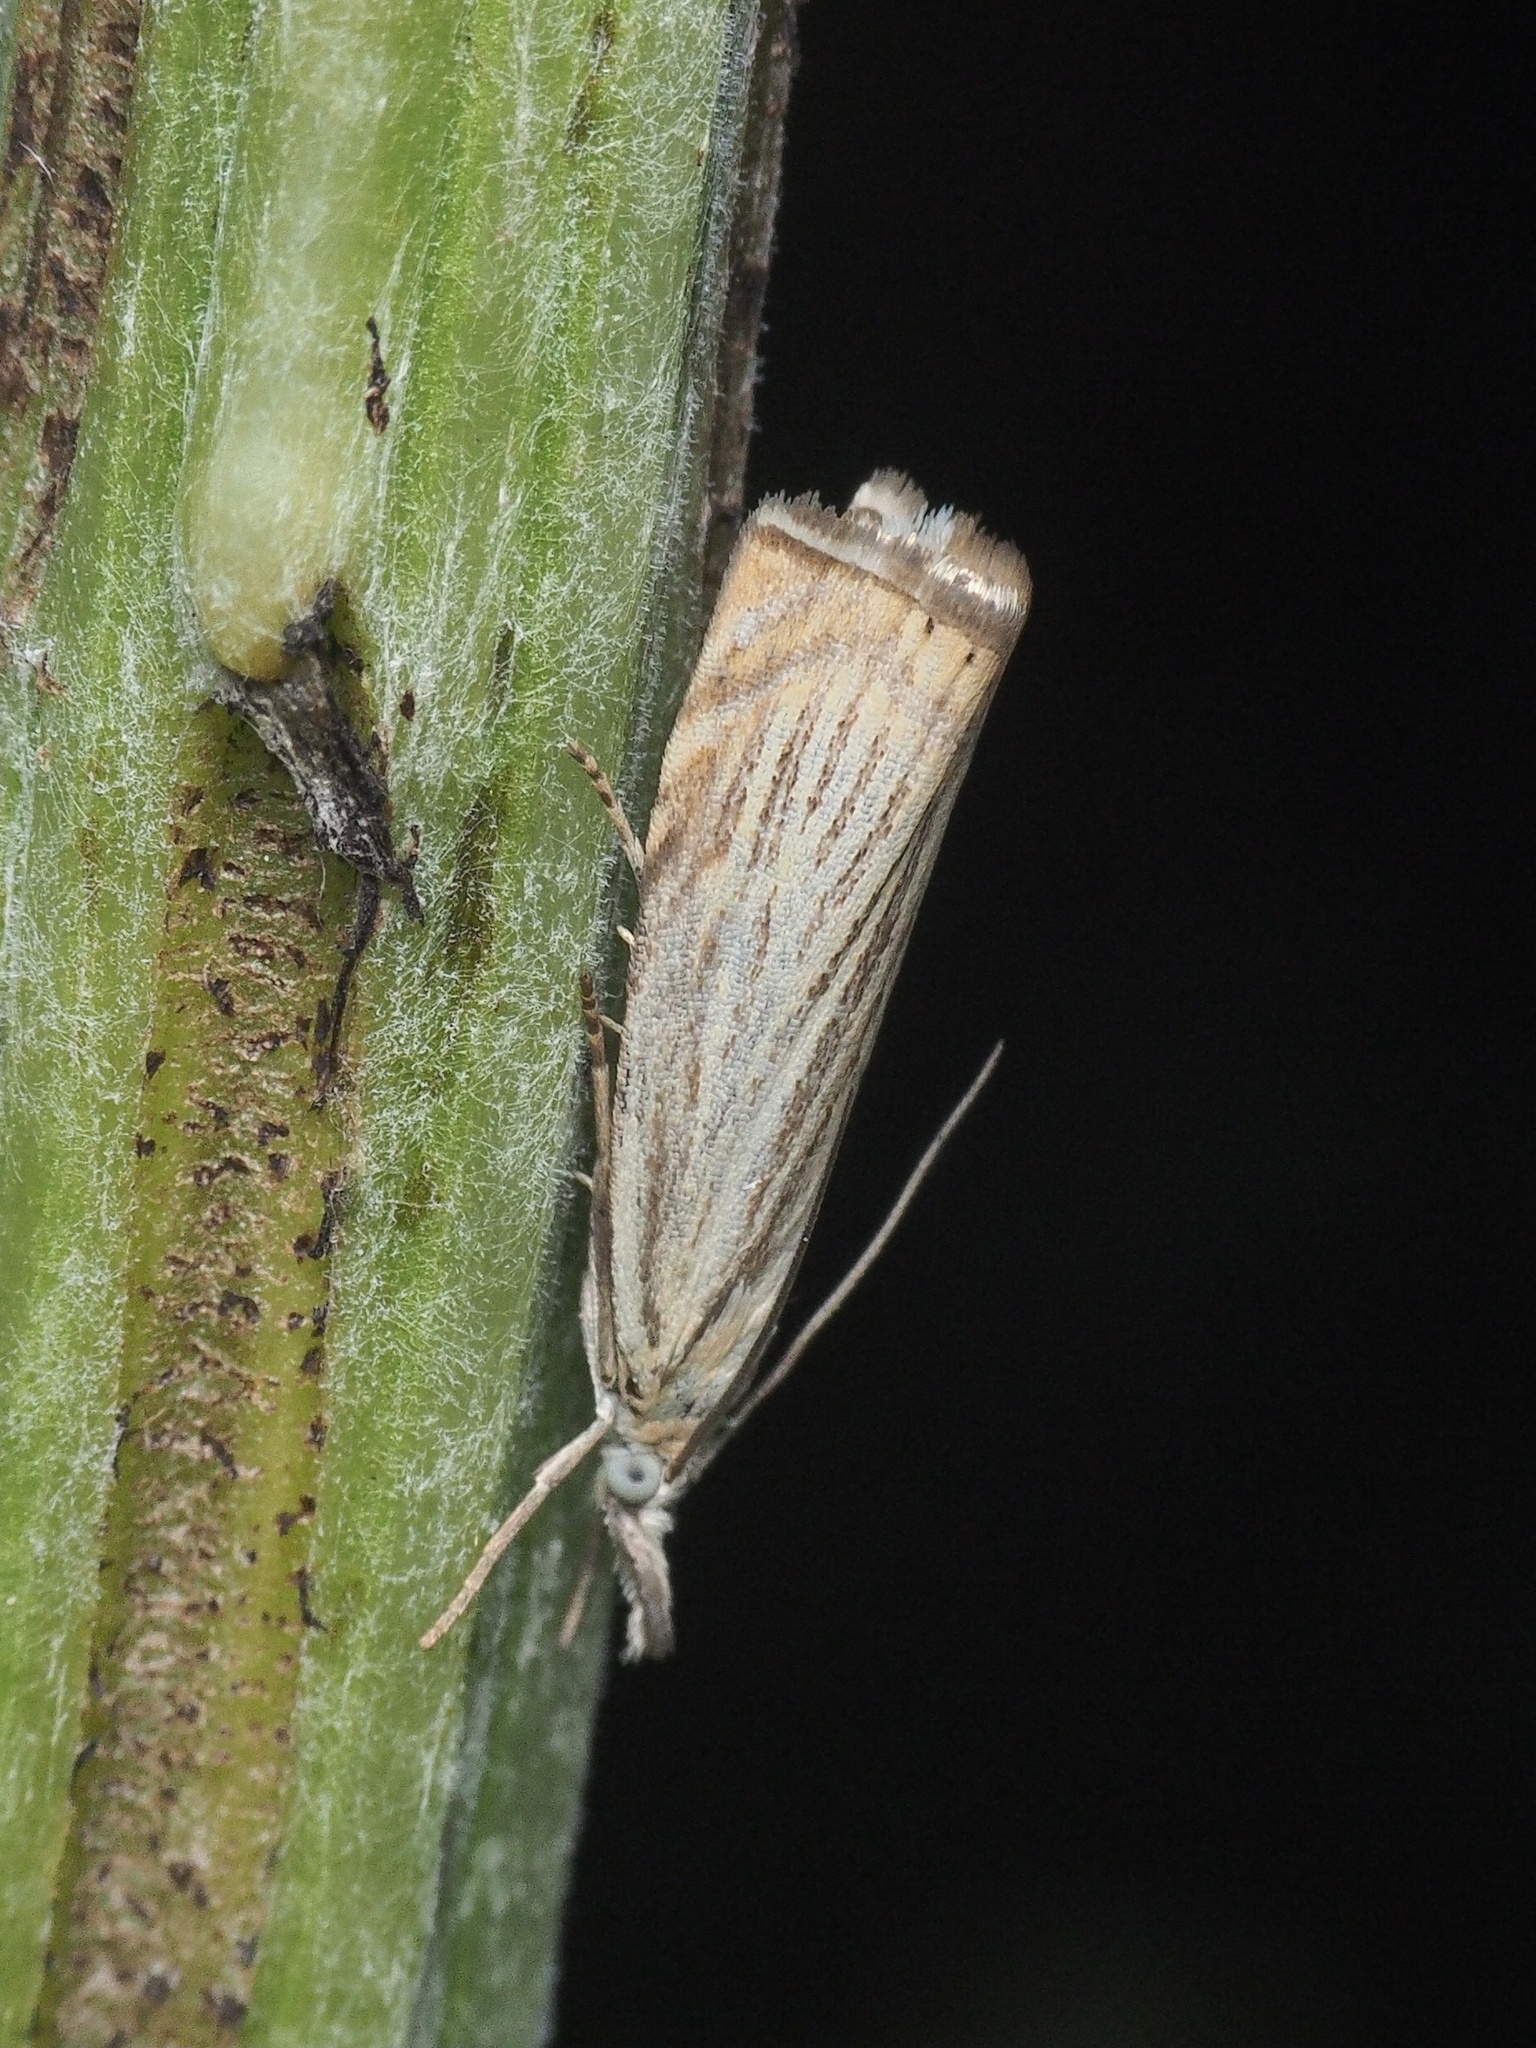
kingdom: Animalia
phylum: Arthropoda
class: Insecta
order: Lepidoptera
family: Crambidae
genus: Chrysoteuchia
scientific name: Chrysoteuchia culmella
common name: Garden grass-veneer
